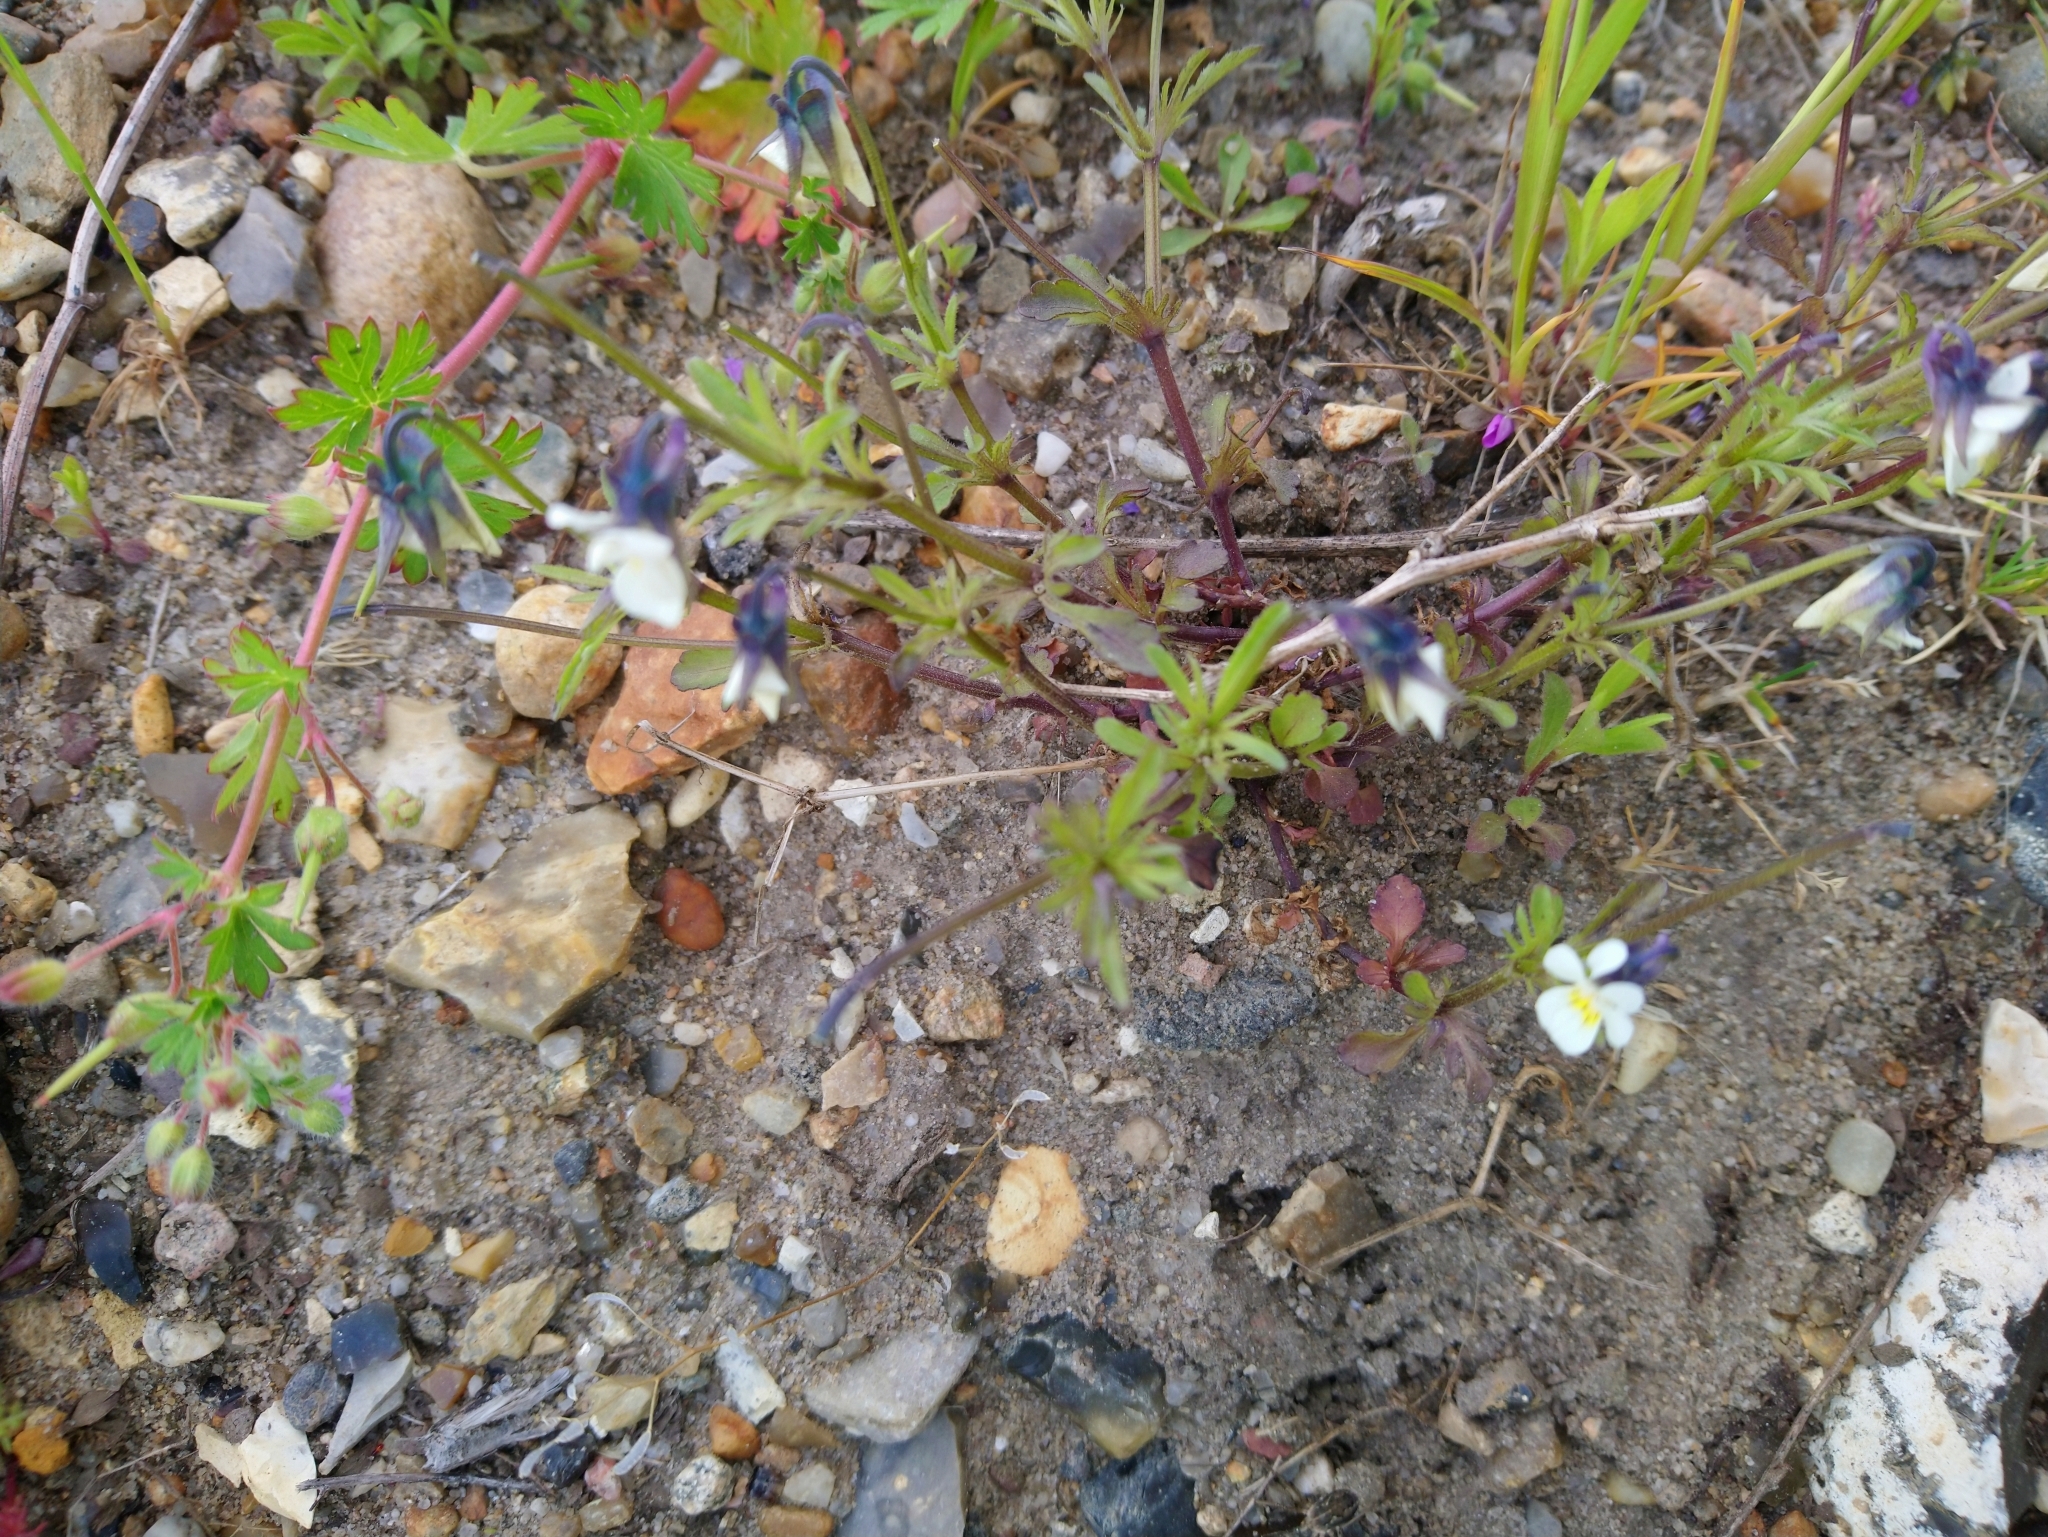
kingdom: Plantae
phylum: Tracheophyta
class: Magnoliopsida
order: Malpighiales
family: Violaceae
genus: Viola
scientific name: Viola arvensis
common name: Field pansy
